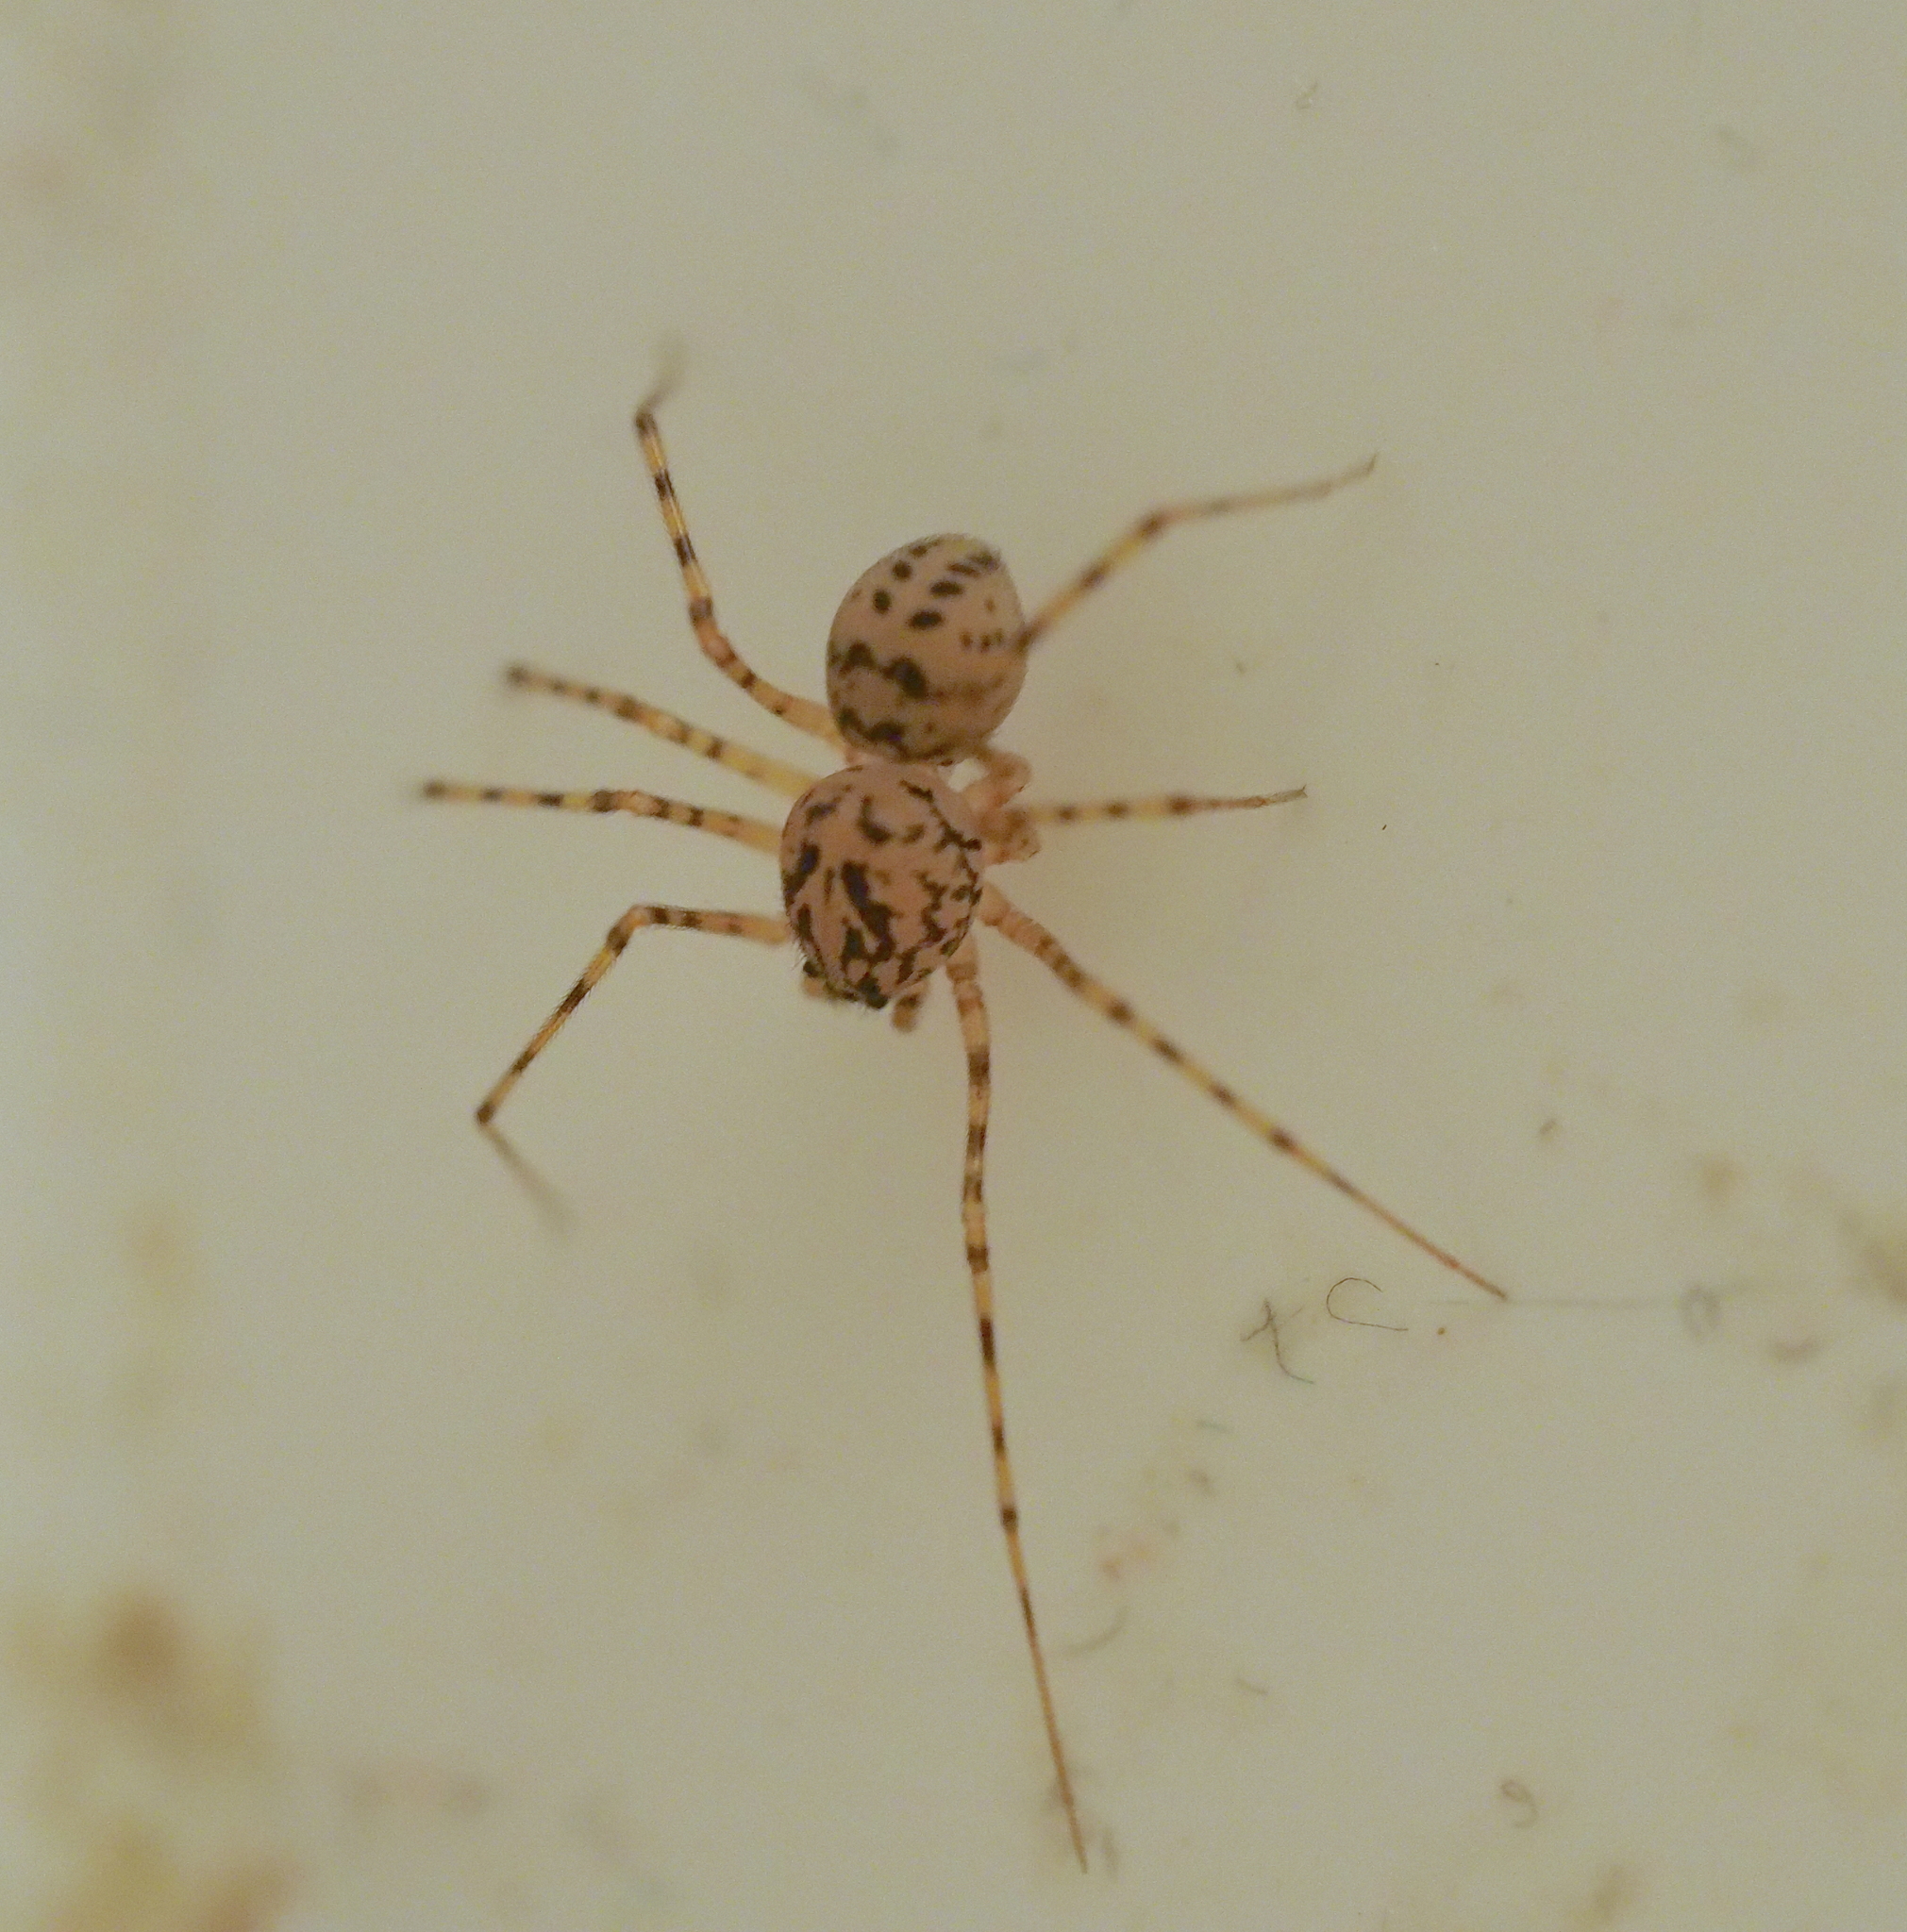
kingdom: Animalia
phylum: Arthropoda
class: Arachnida
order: Araneae
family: Scytodidae
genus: Scytodes
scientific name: Scytodes thoracica
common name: Spitting spider
